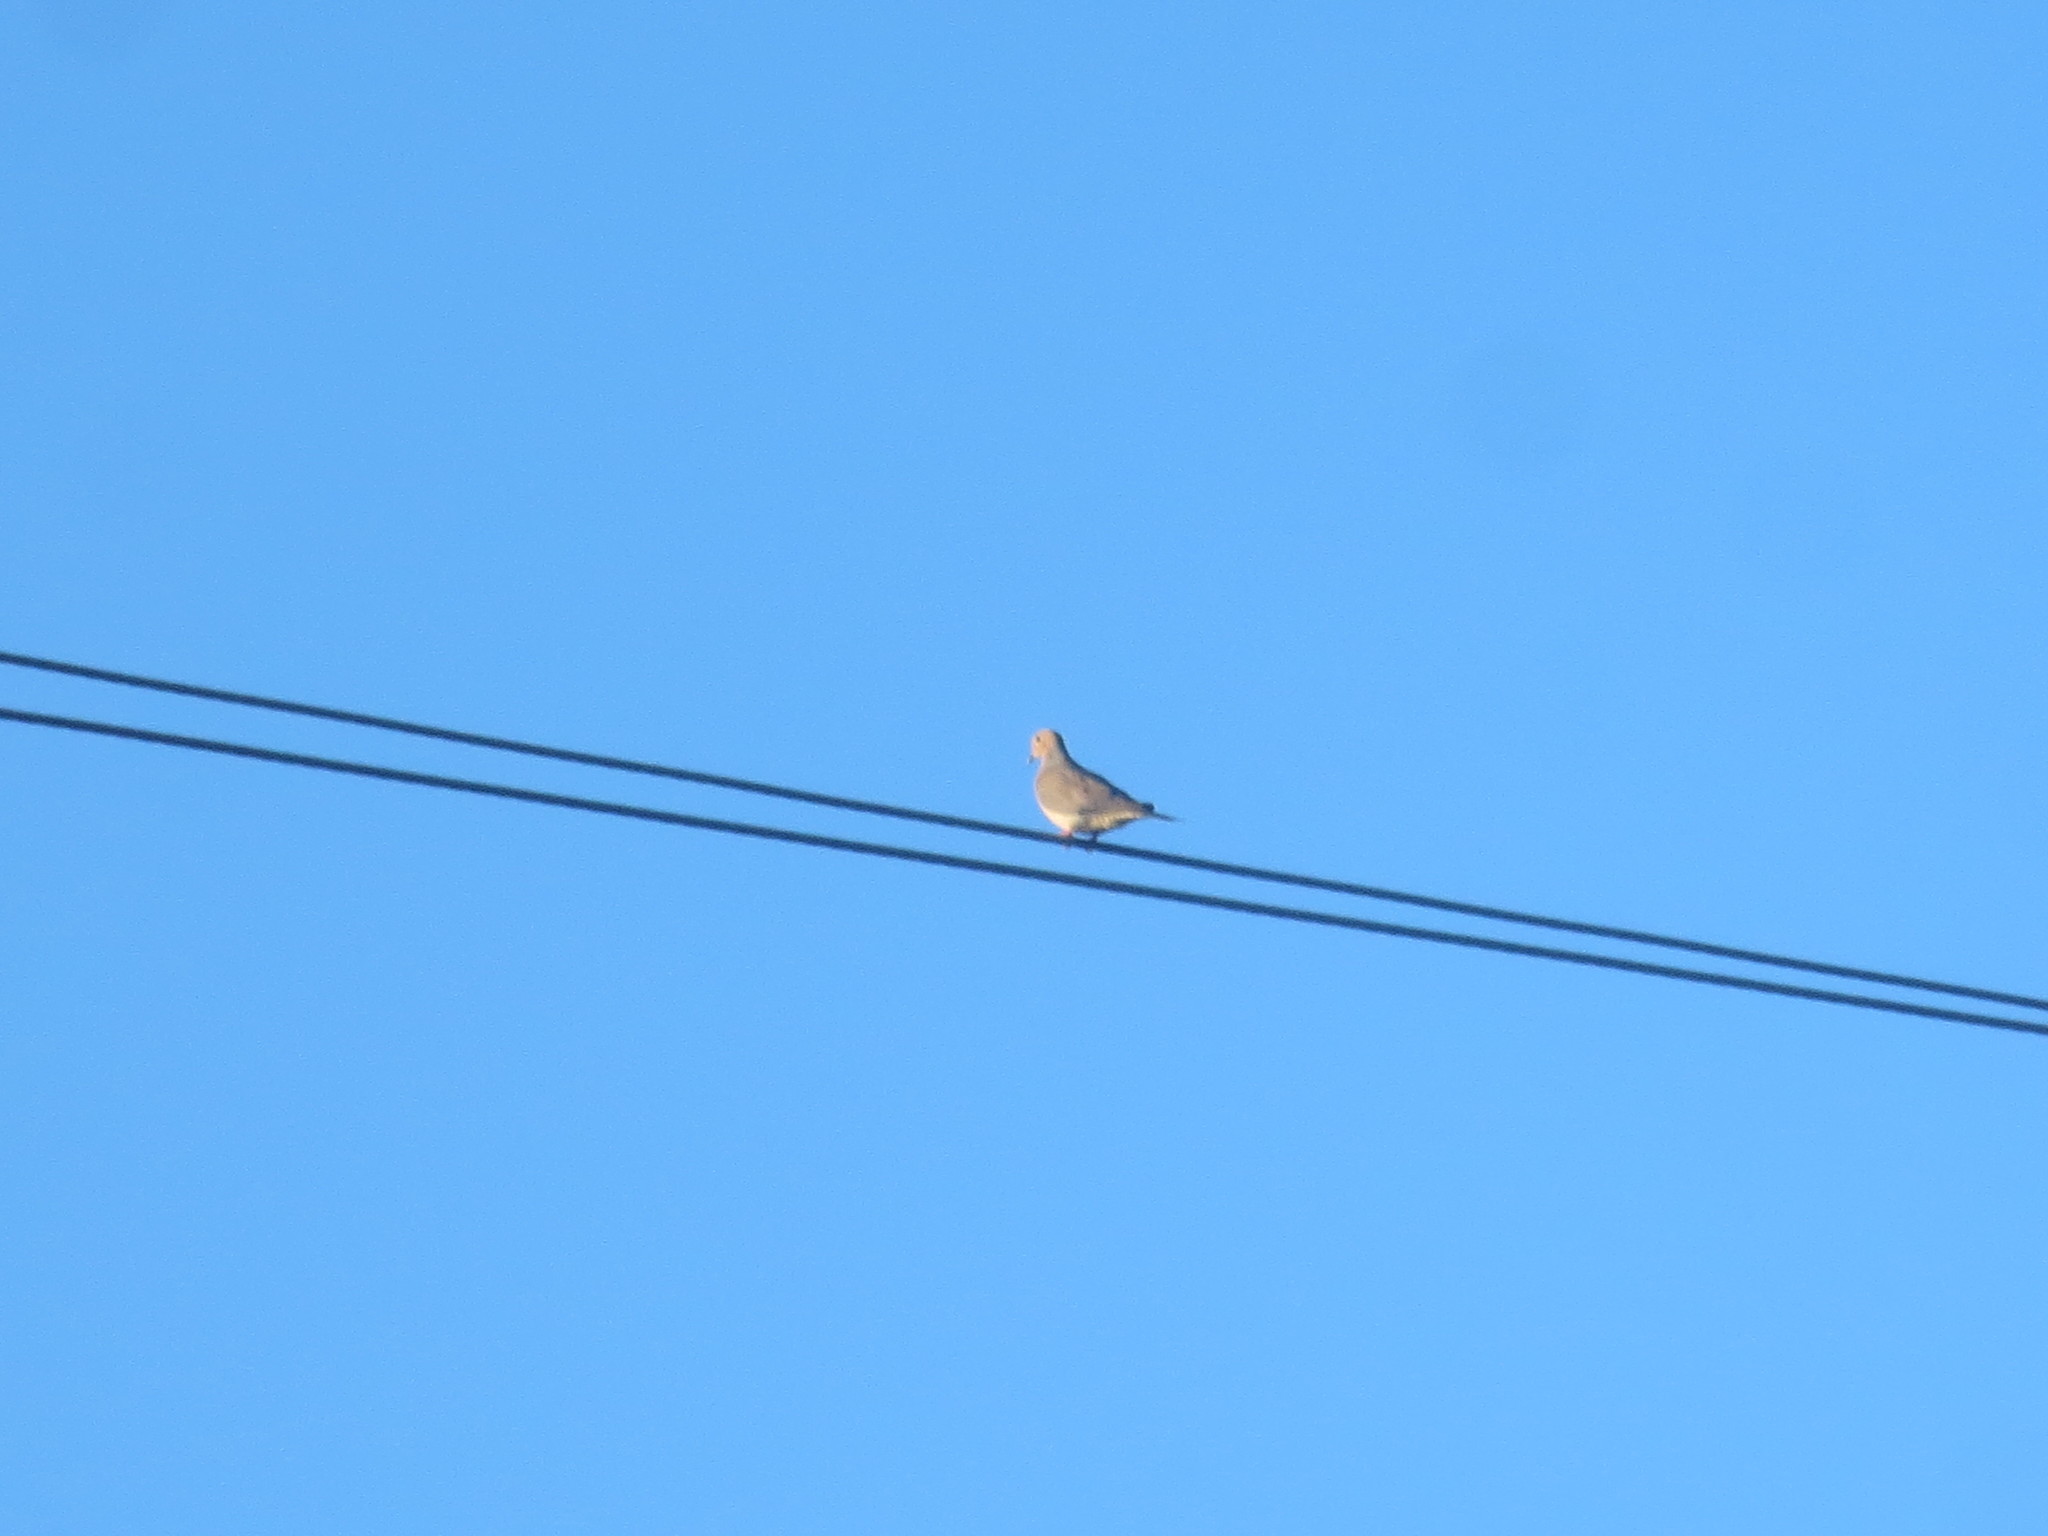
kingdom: Animalia
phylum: Chordata
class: Aves
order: Columbiformes
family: Columbidae
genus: Zenaida
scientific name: Zenaida macroura
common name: Mourning dove
